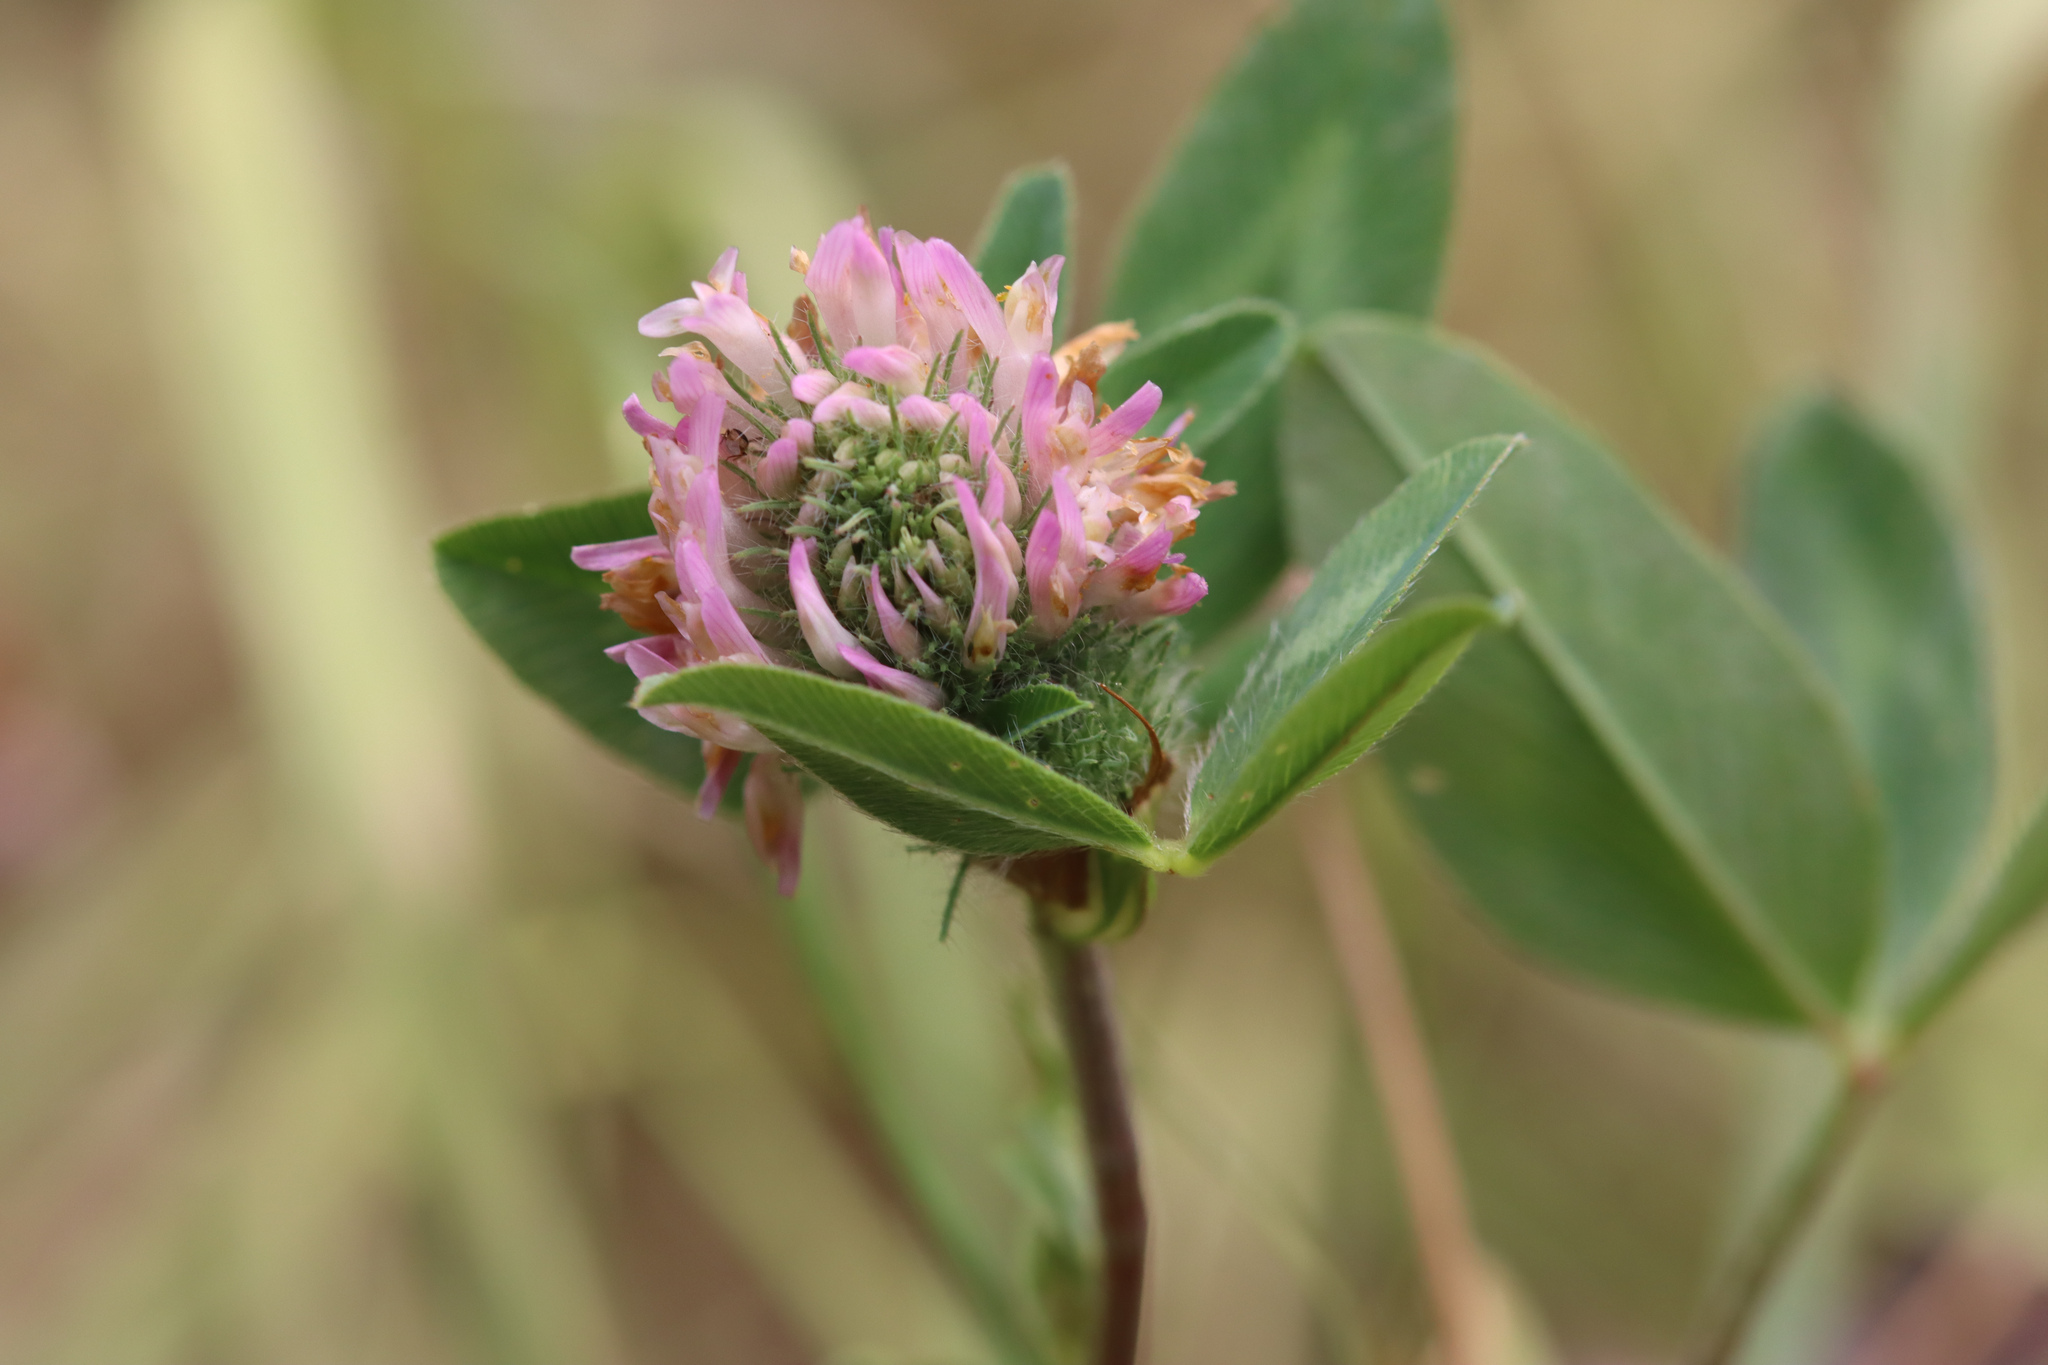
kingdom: Plantae
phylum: Tracheophyta
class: Magnoliopsida
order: Fabales
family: Fabaceae
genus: Trifolium
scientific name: Trifolium pratense
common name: Red clover
